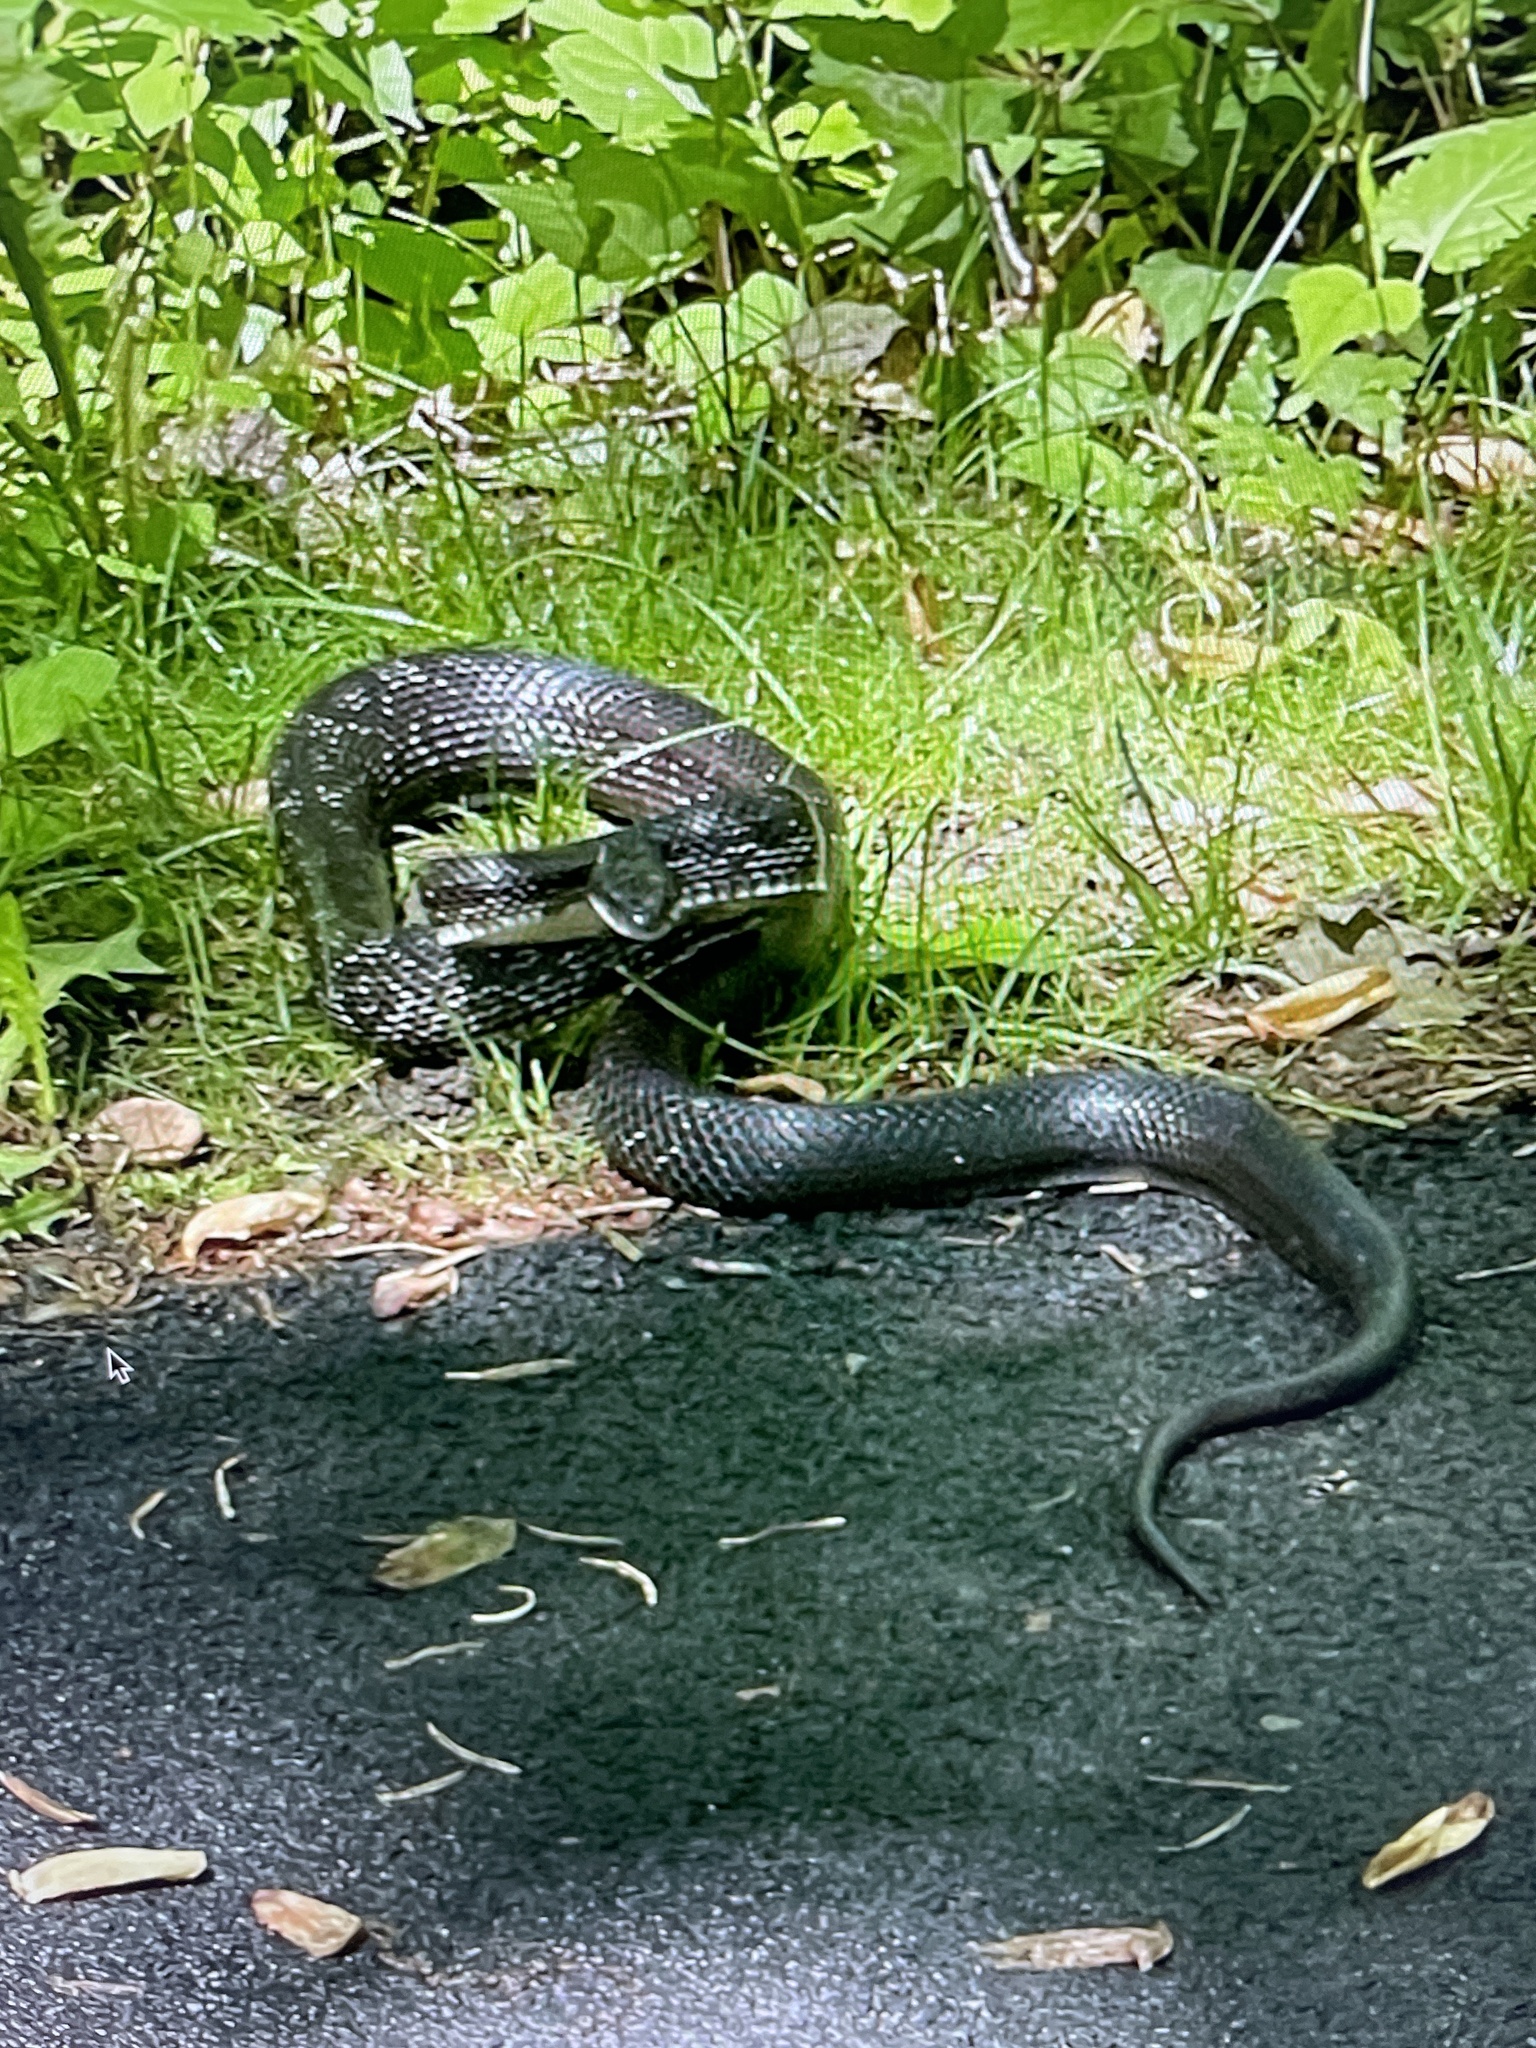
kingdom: Animalia
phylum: Chordata
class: Squamata
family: Colubridae
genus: Pantherophis
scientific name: Pantherophis alleghaniensis
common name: Eastern rat snake
